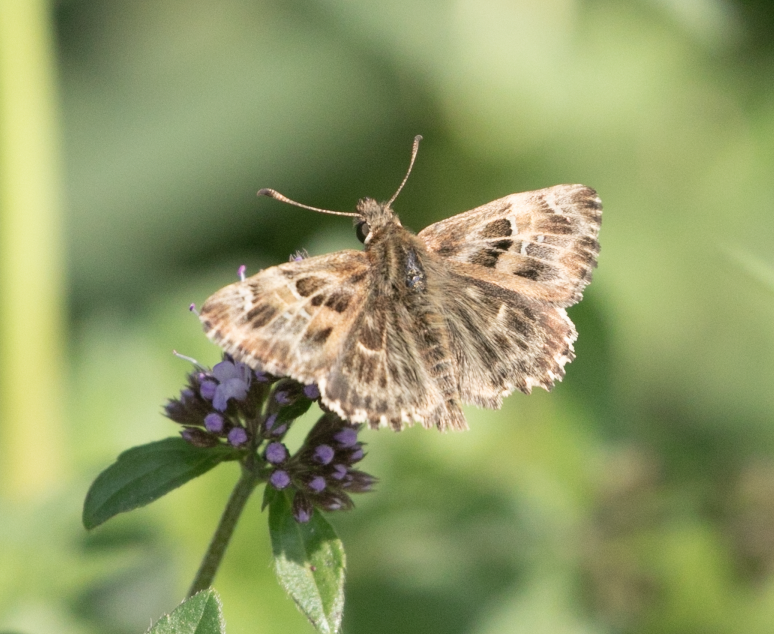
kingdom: Animalia
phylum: Arthropoda
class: Insecta
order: Lepidoptera
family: Hesperiidae
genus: Carcharodus
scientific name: Carcharodus alceae
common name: Mallow skipper
